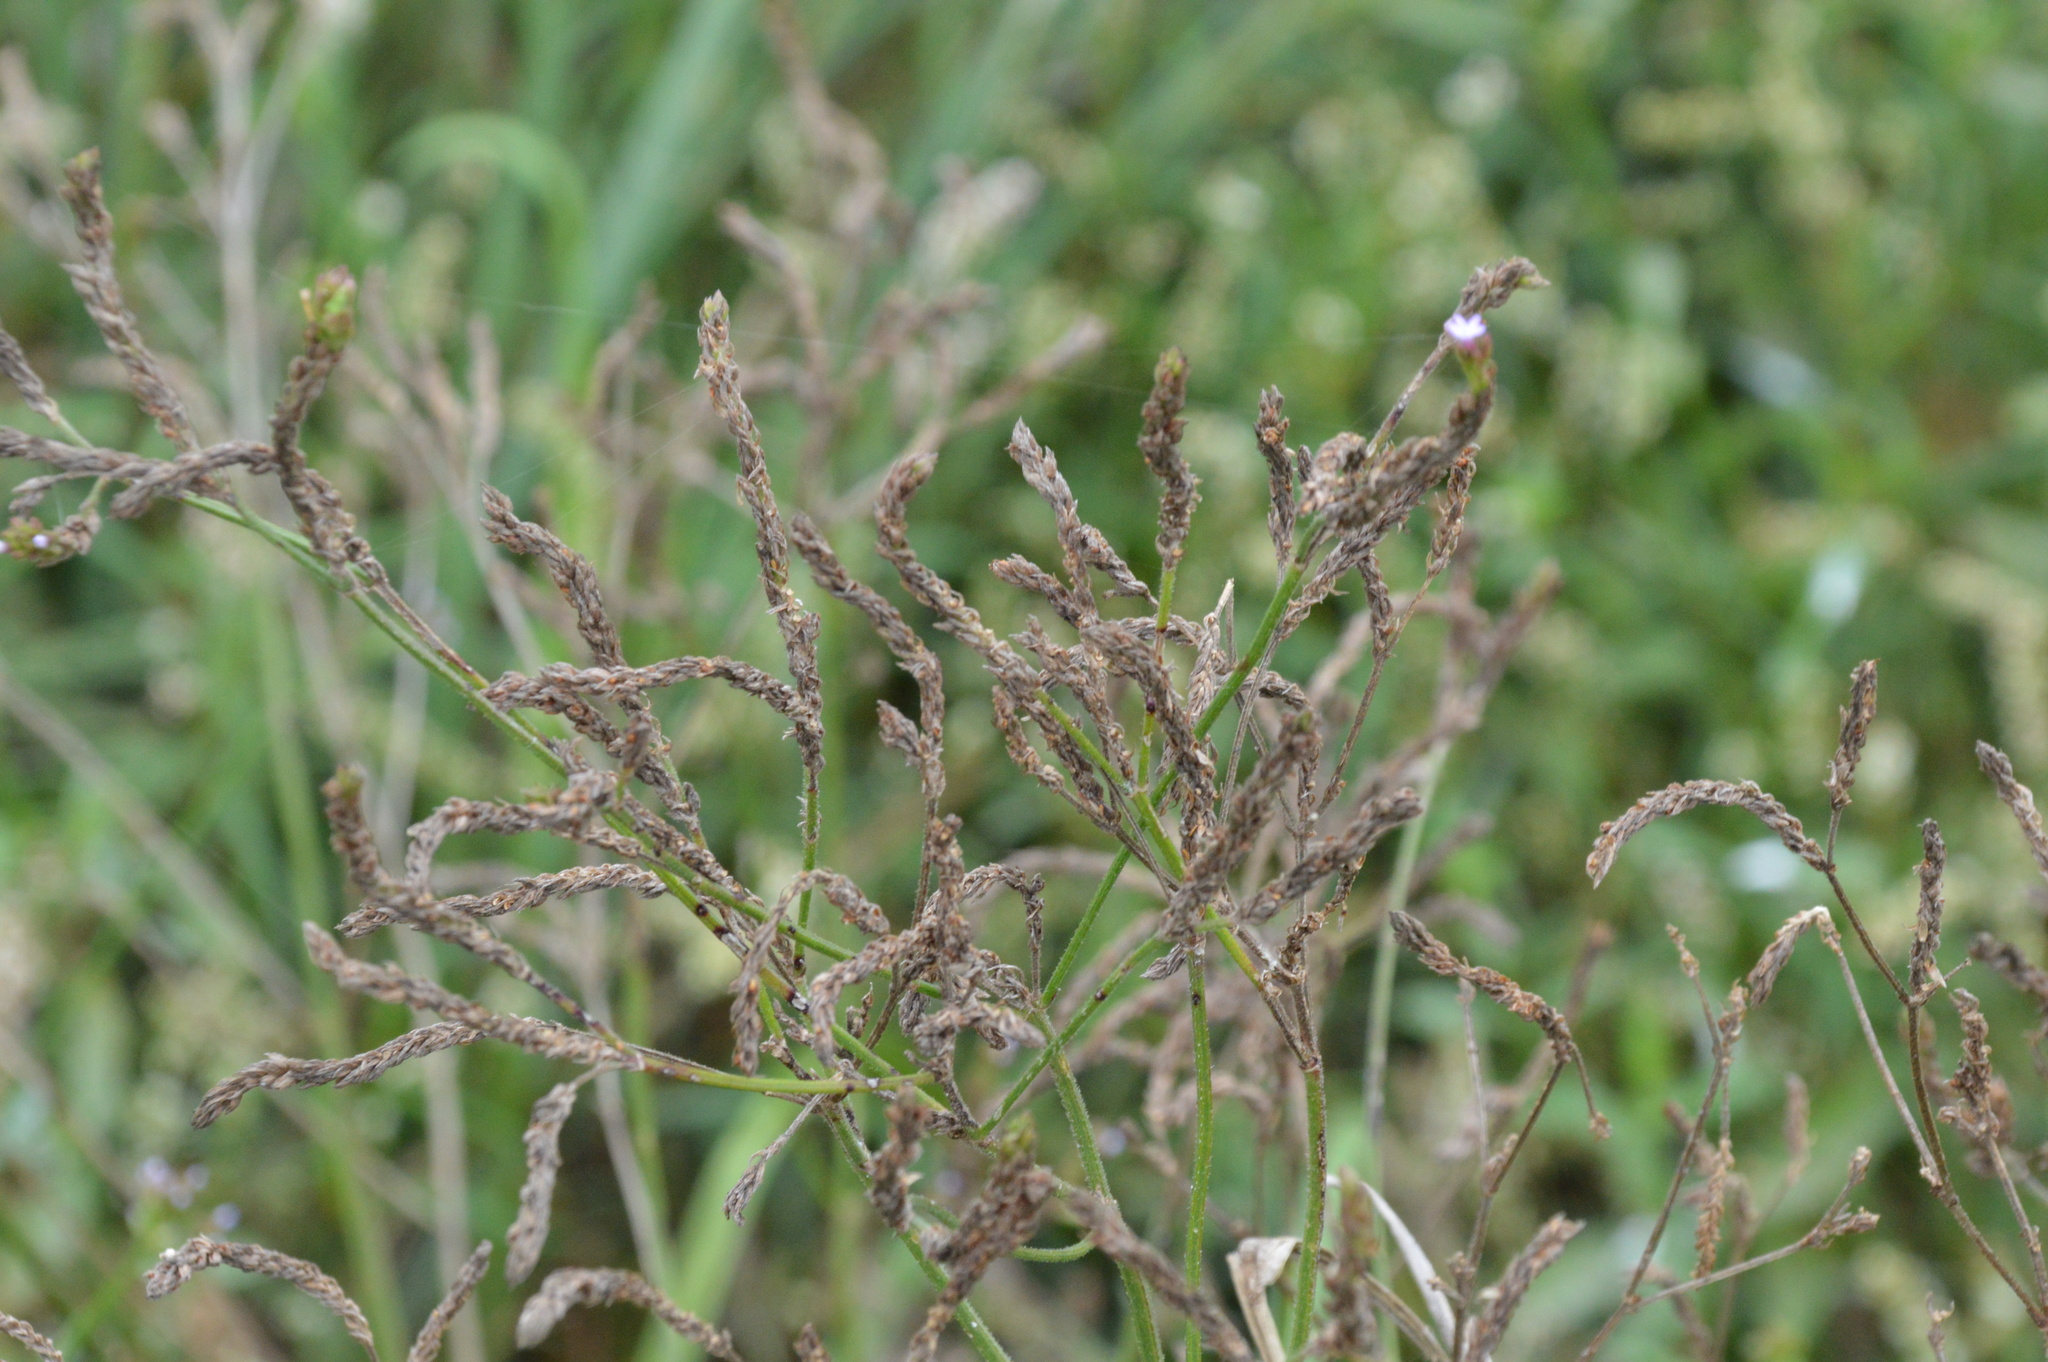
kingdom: Plantae
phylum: Tracheophyta
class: Magnoliopsida
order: Lamiales
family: Verbenaceae
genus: Verbena
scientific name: Verbena brasiliensis
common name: Brazilian vervain
